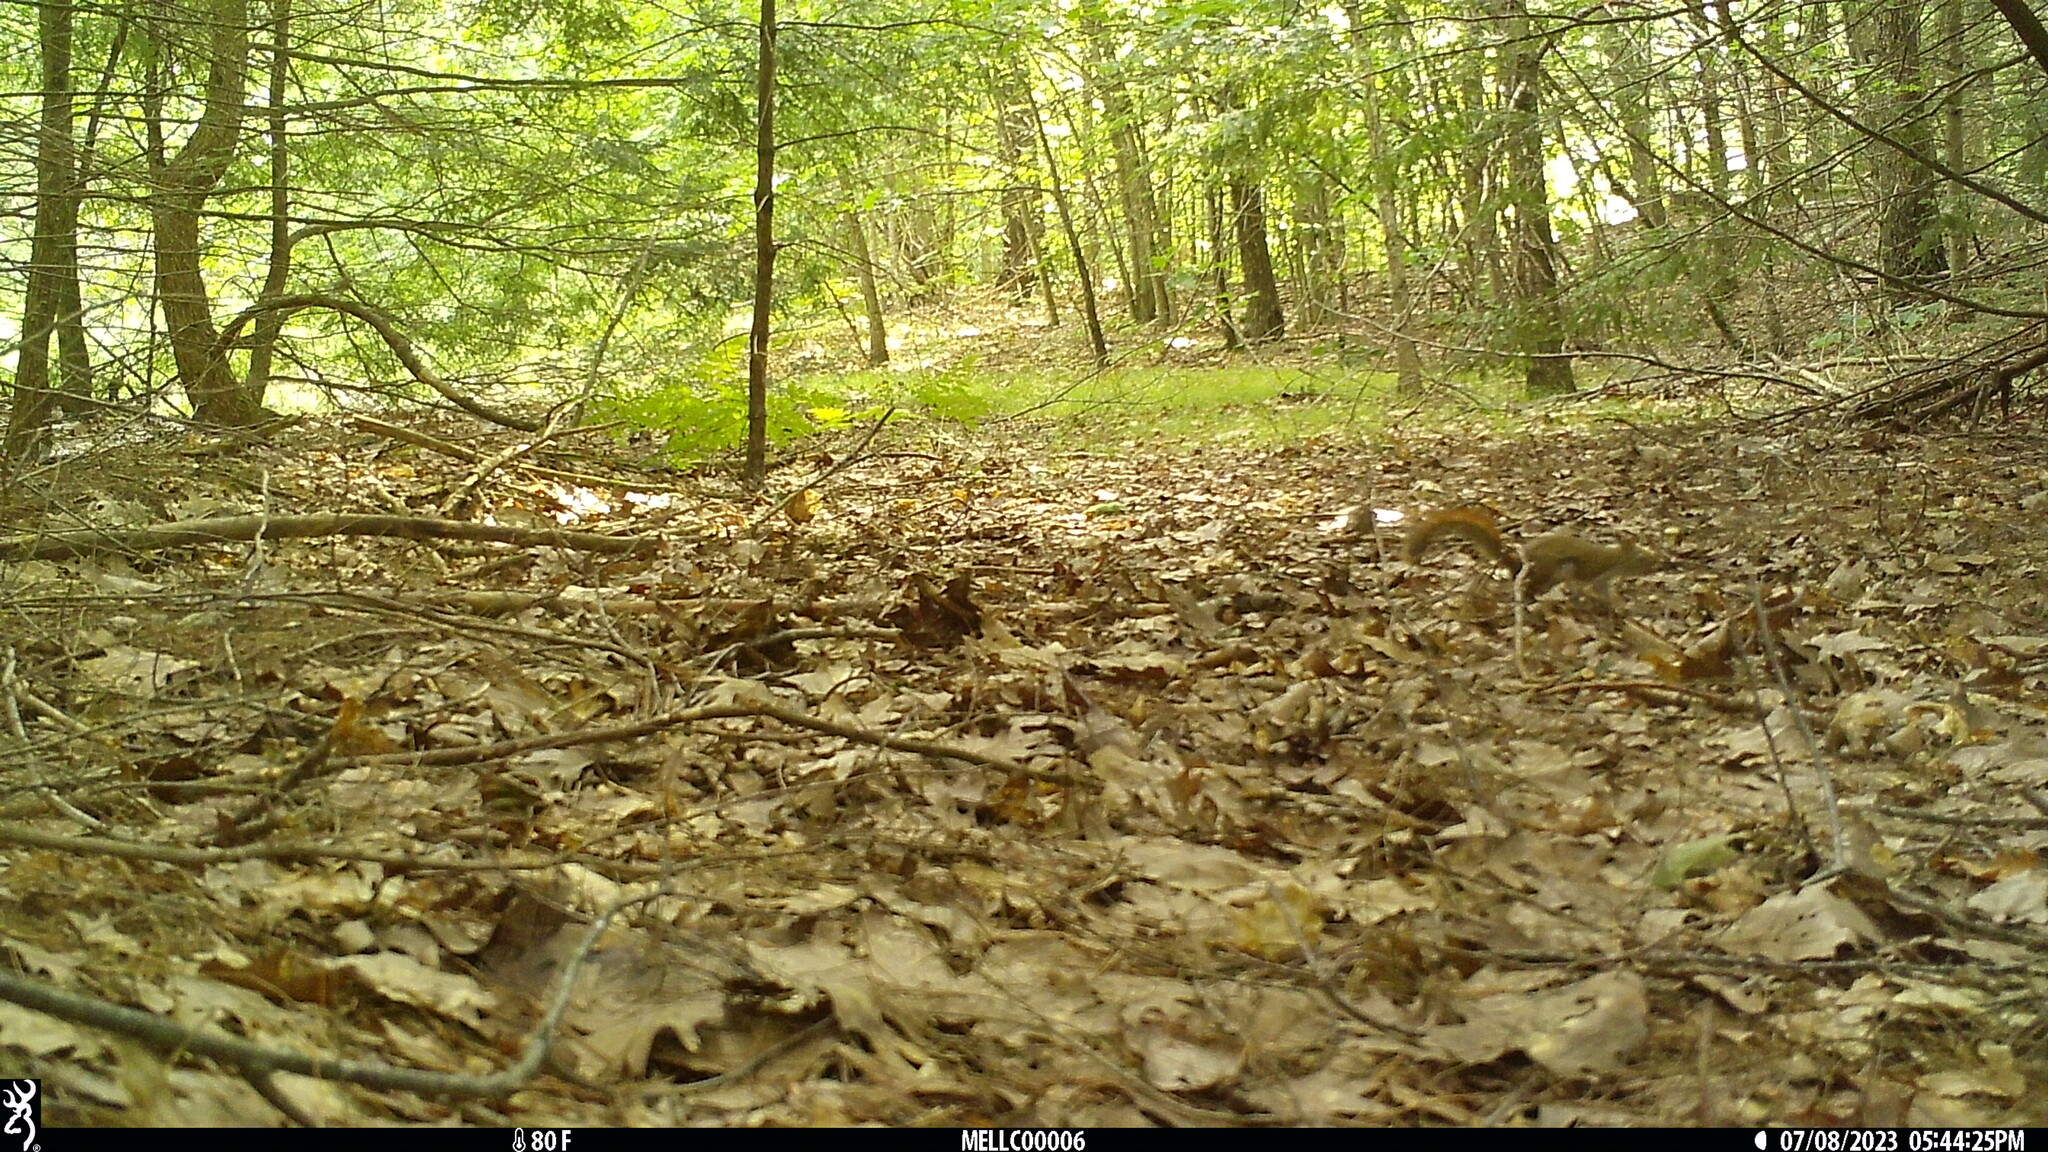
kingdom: Animalia
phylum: Chordata
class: Mammalia
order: Rodentia
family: Sciuridae
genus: Tamiasciurus
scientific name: Tamiasciurus hudsonicus
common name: Red squirrel
